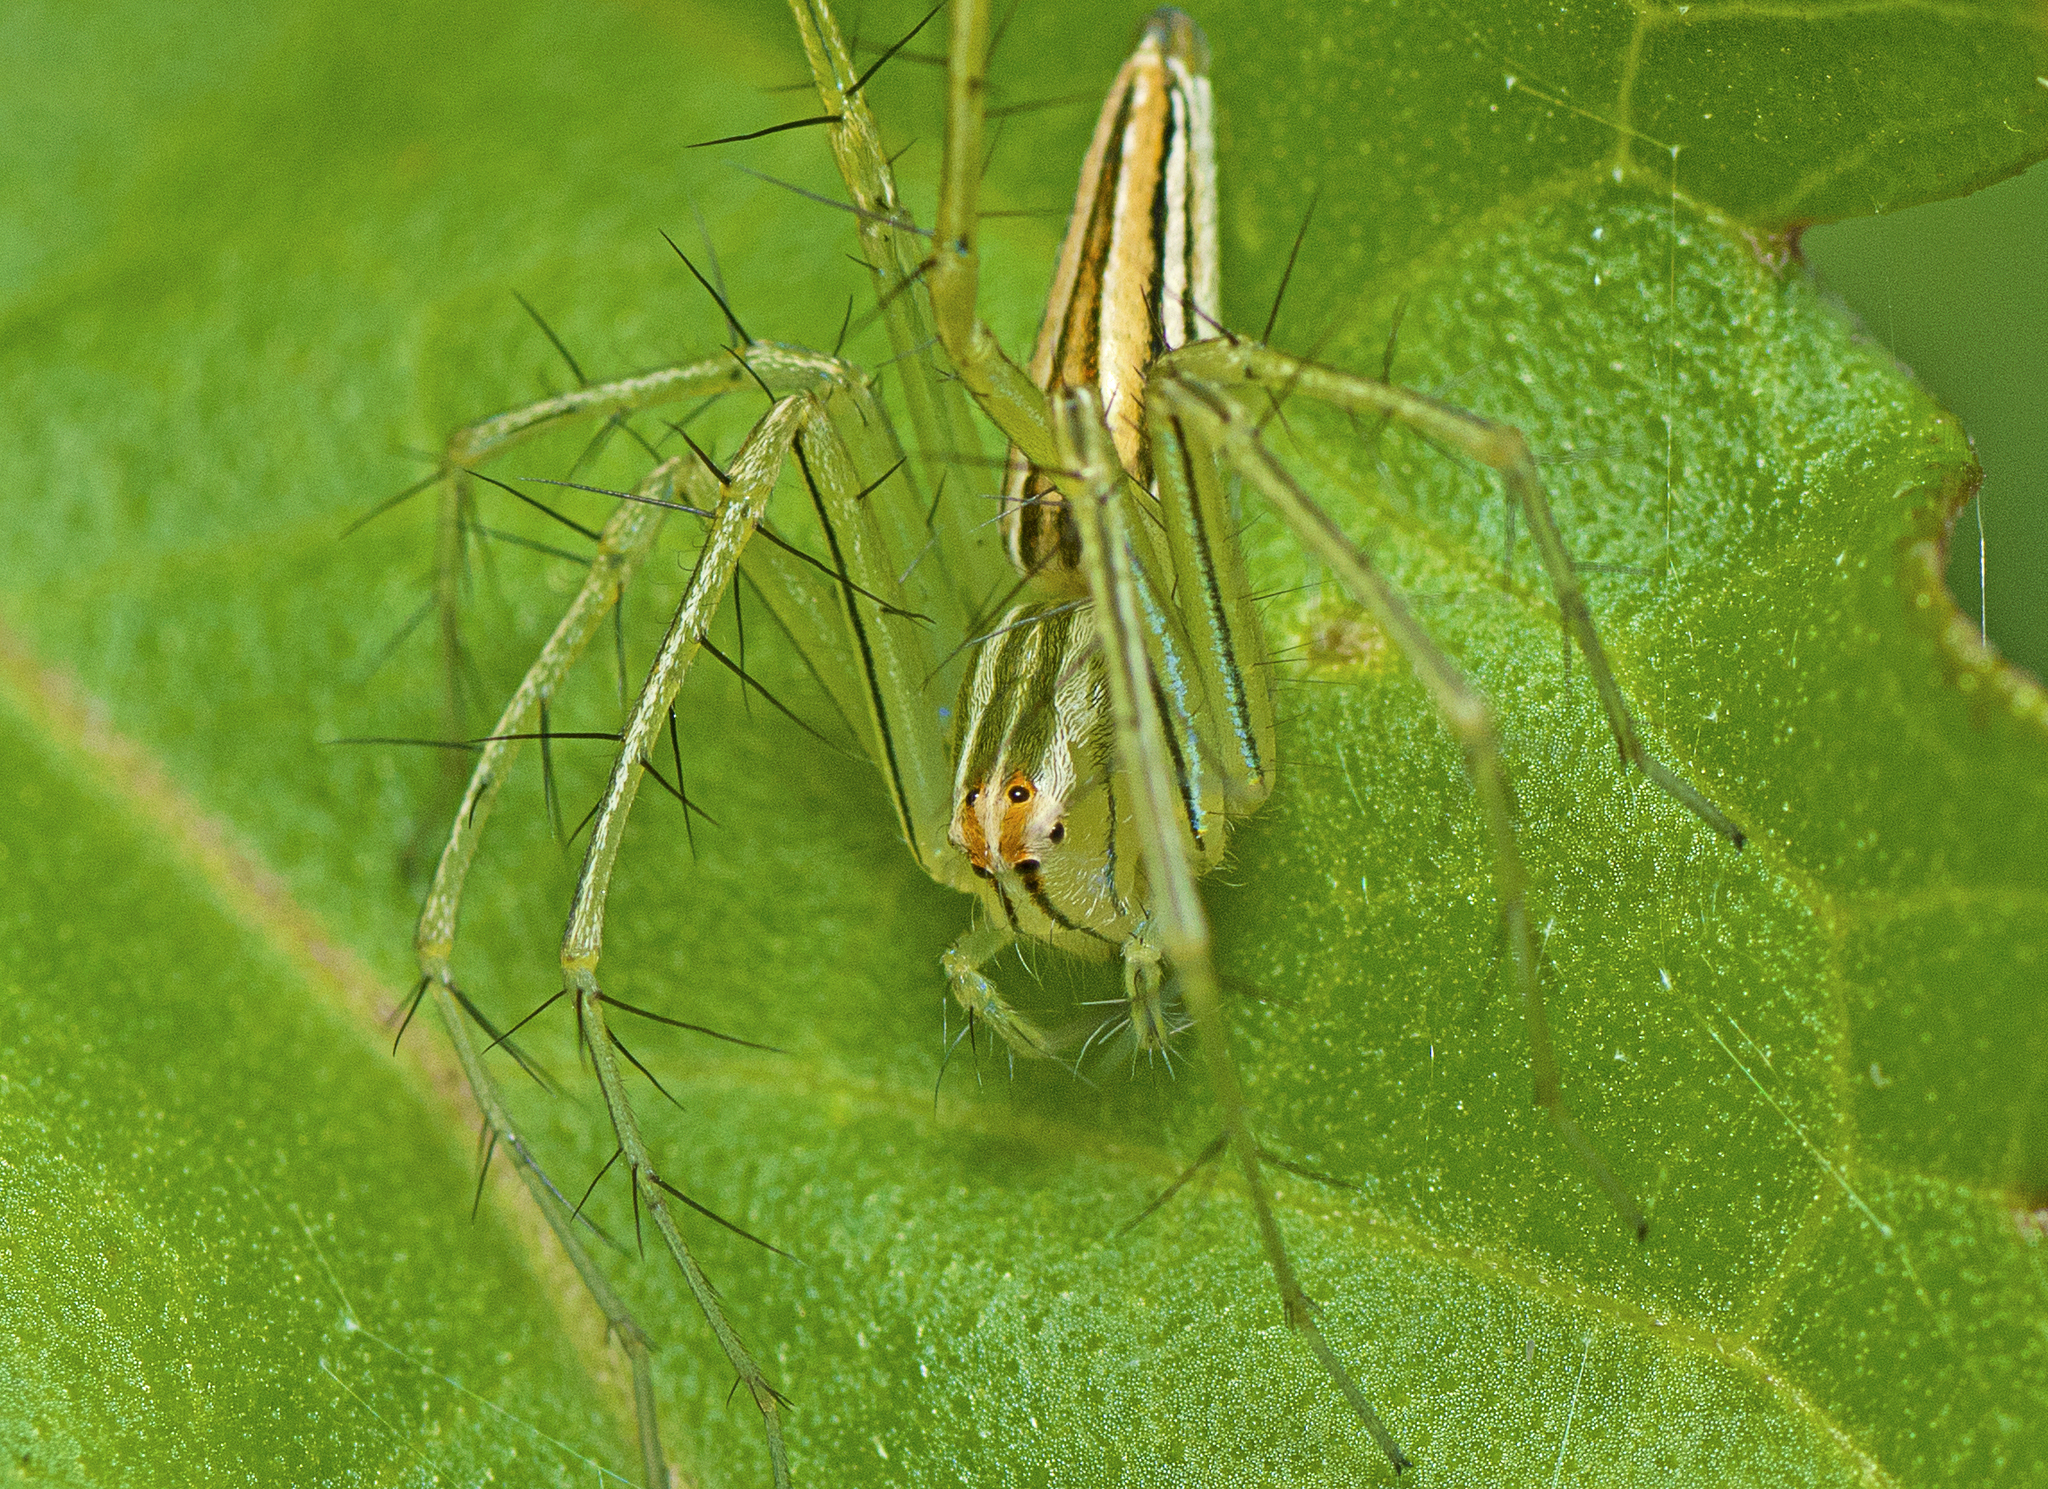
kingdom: Animalia
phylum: Arthropoda
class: Arachnida
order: Araneae
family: Oxyopidae
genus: Oxyopes
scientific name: Oxyopes macilentus
